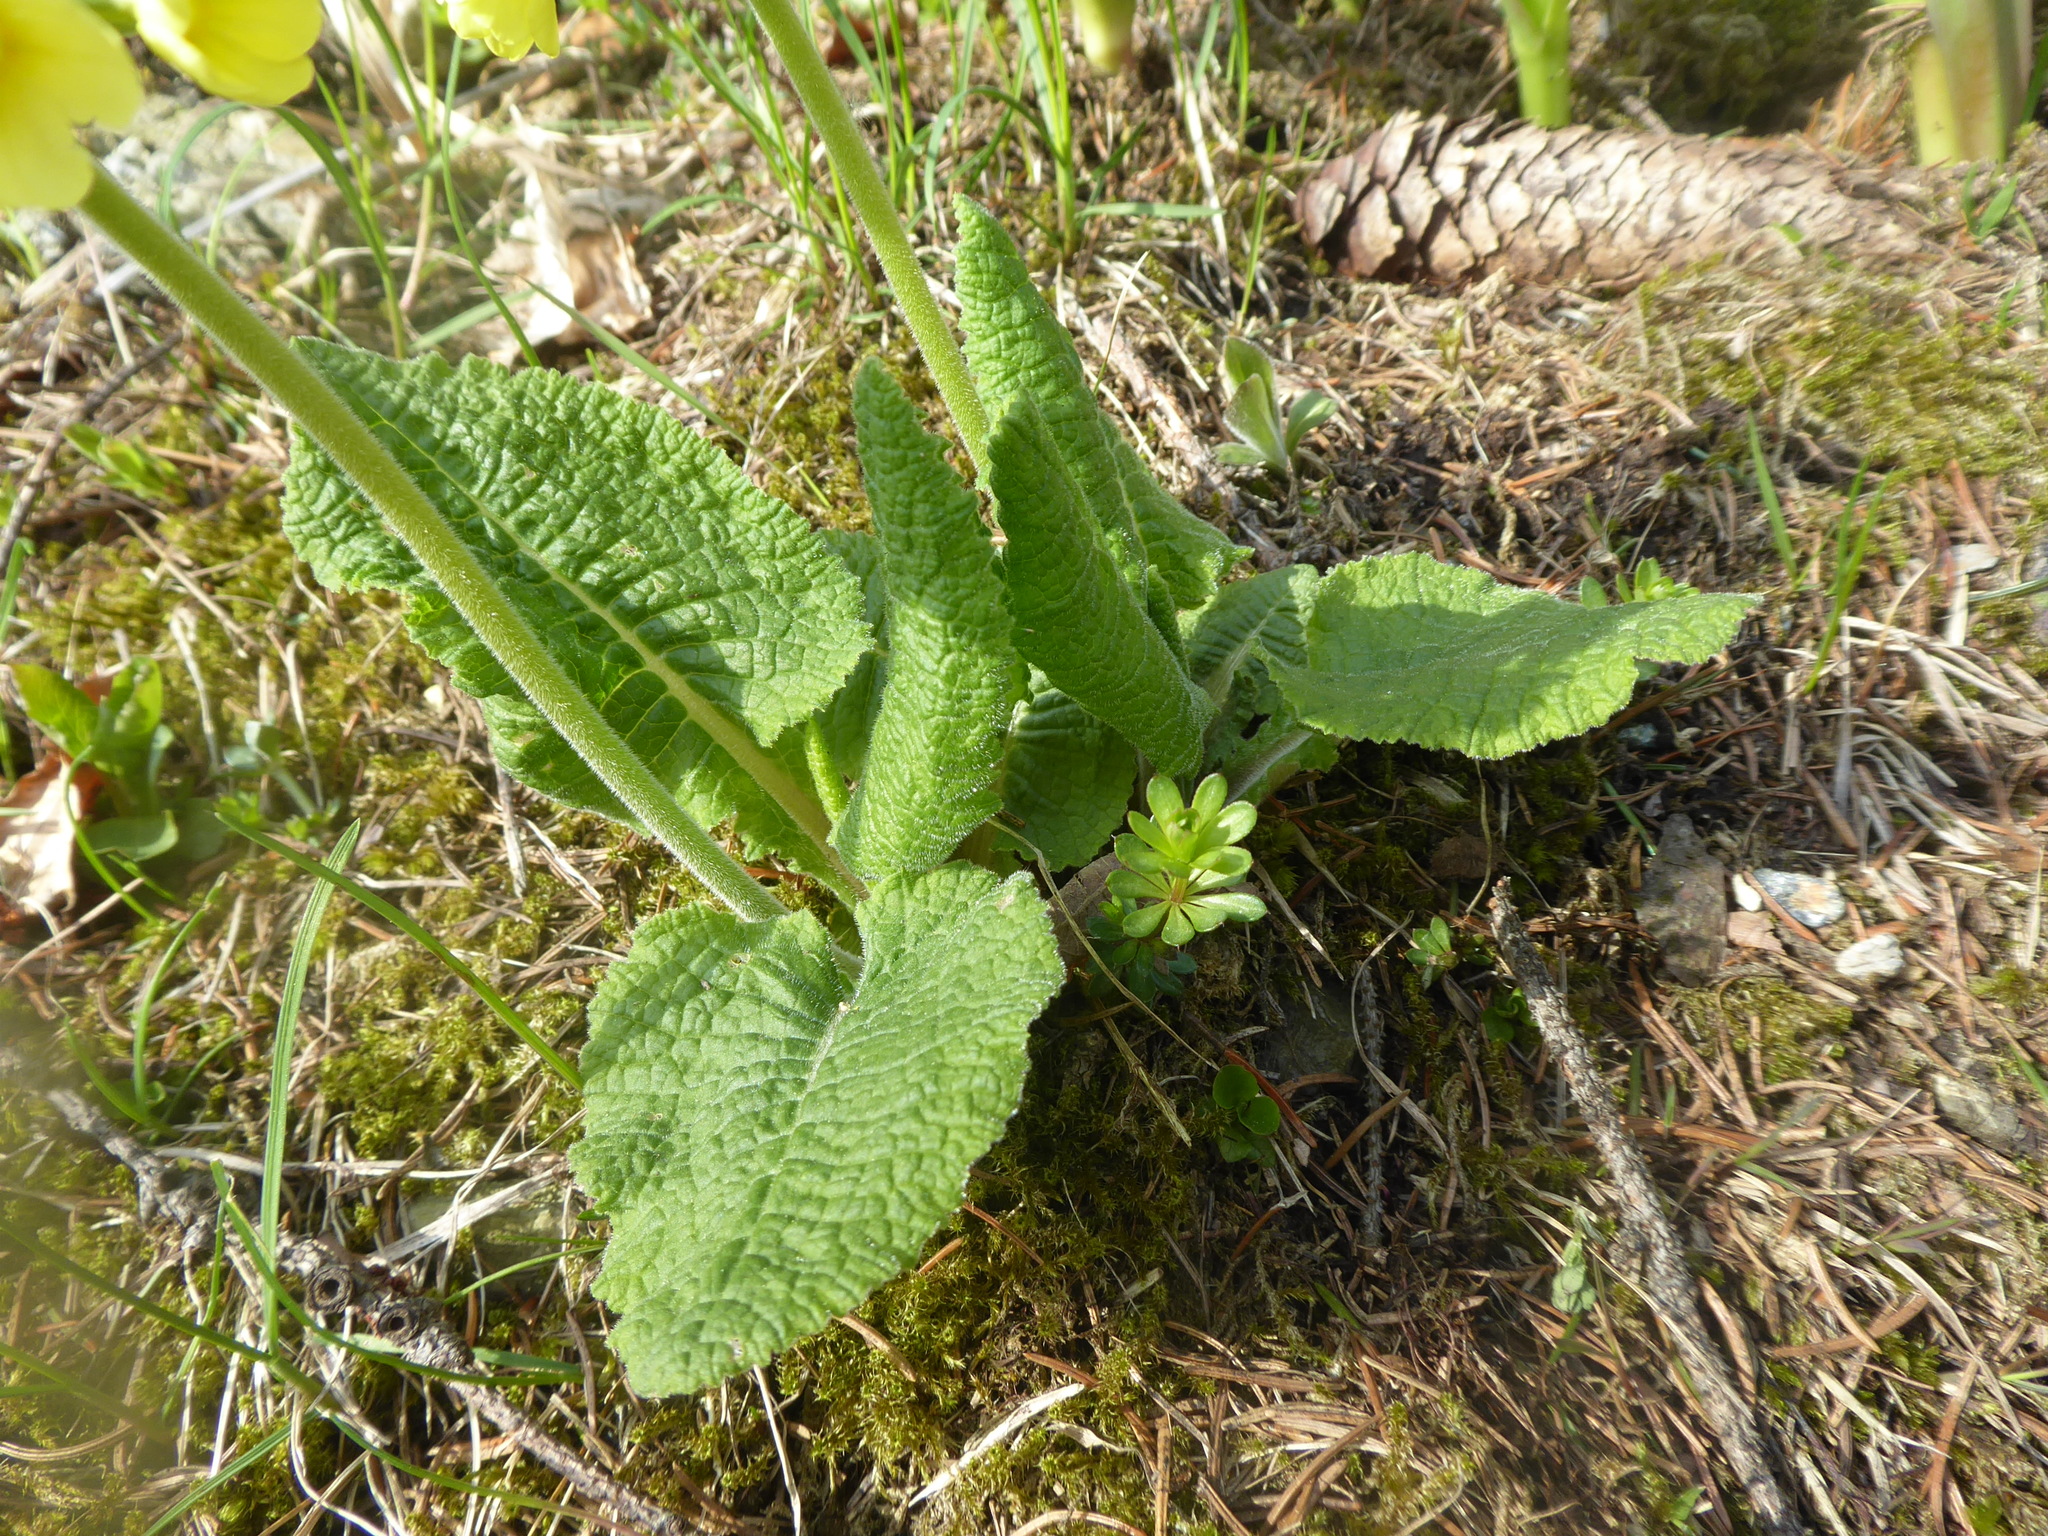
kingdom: Plantae
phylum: Tracheophyta
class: Magnoliopsida
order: Ericales
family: Primulaceae
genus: Primula
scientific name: Primula elatior
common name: Oxlip
